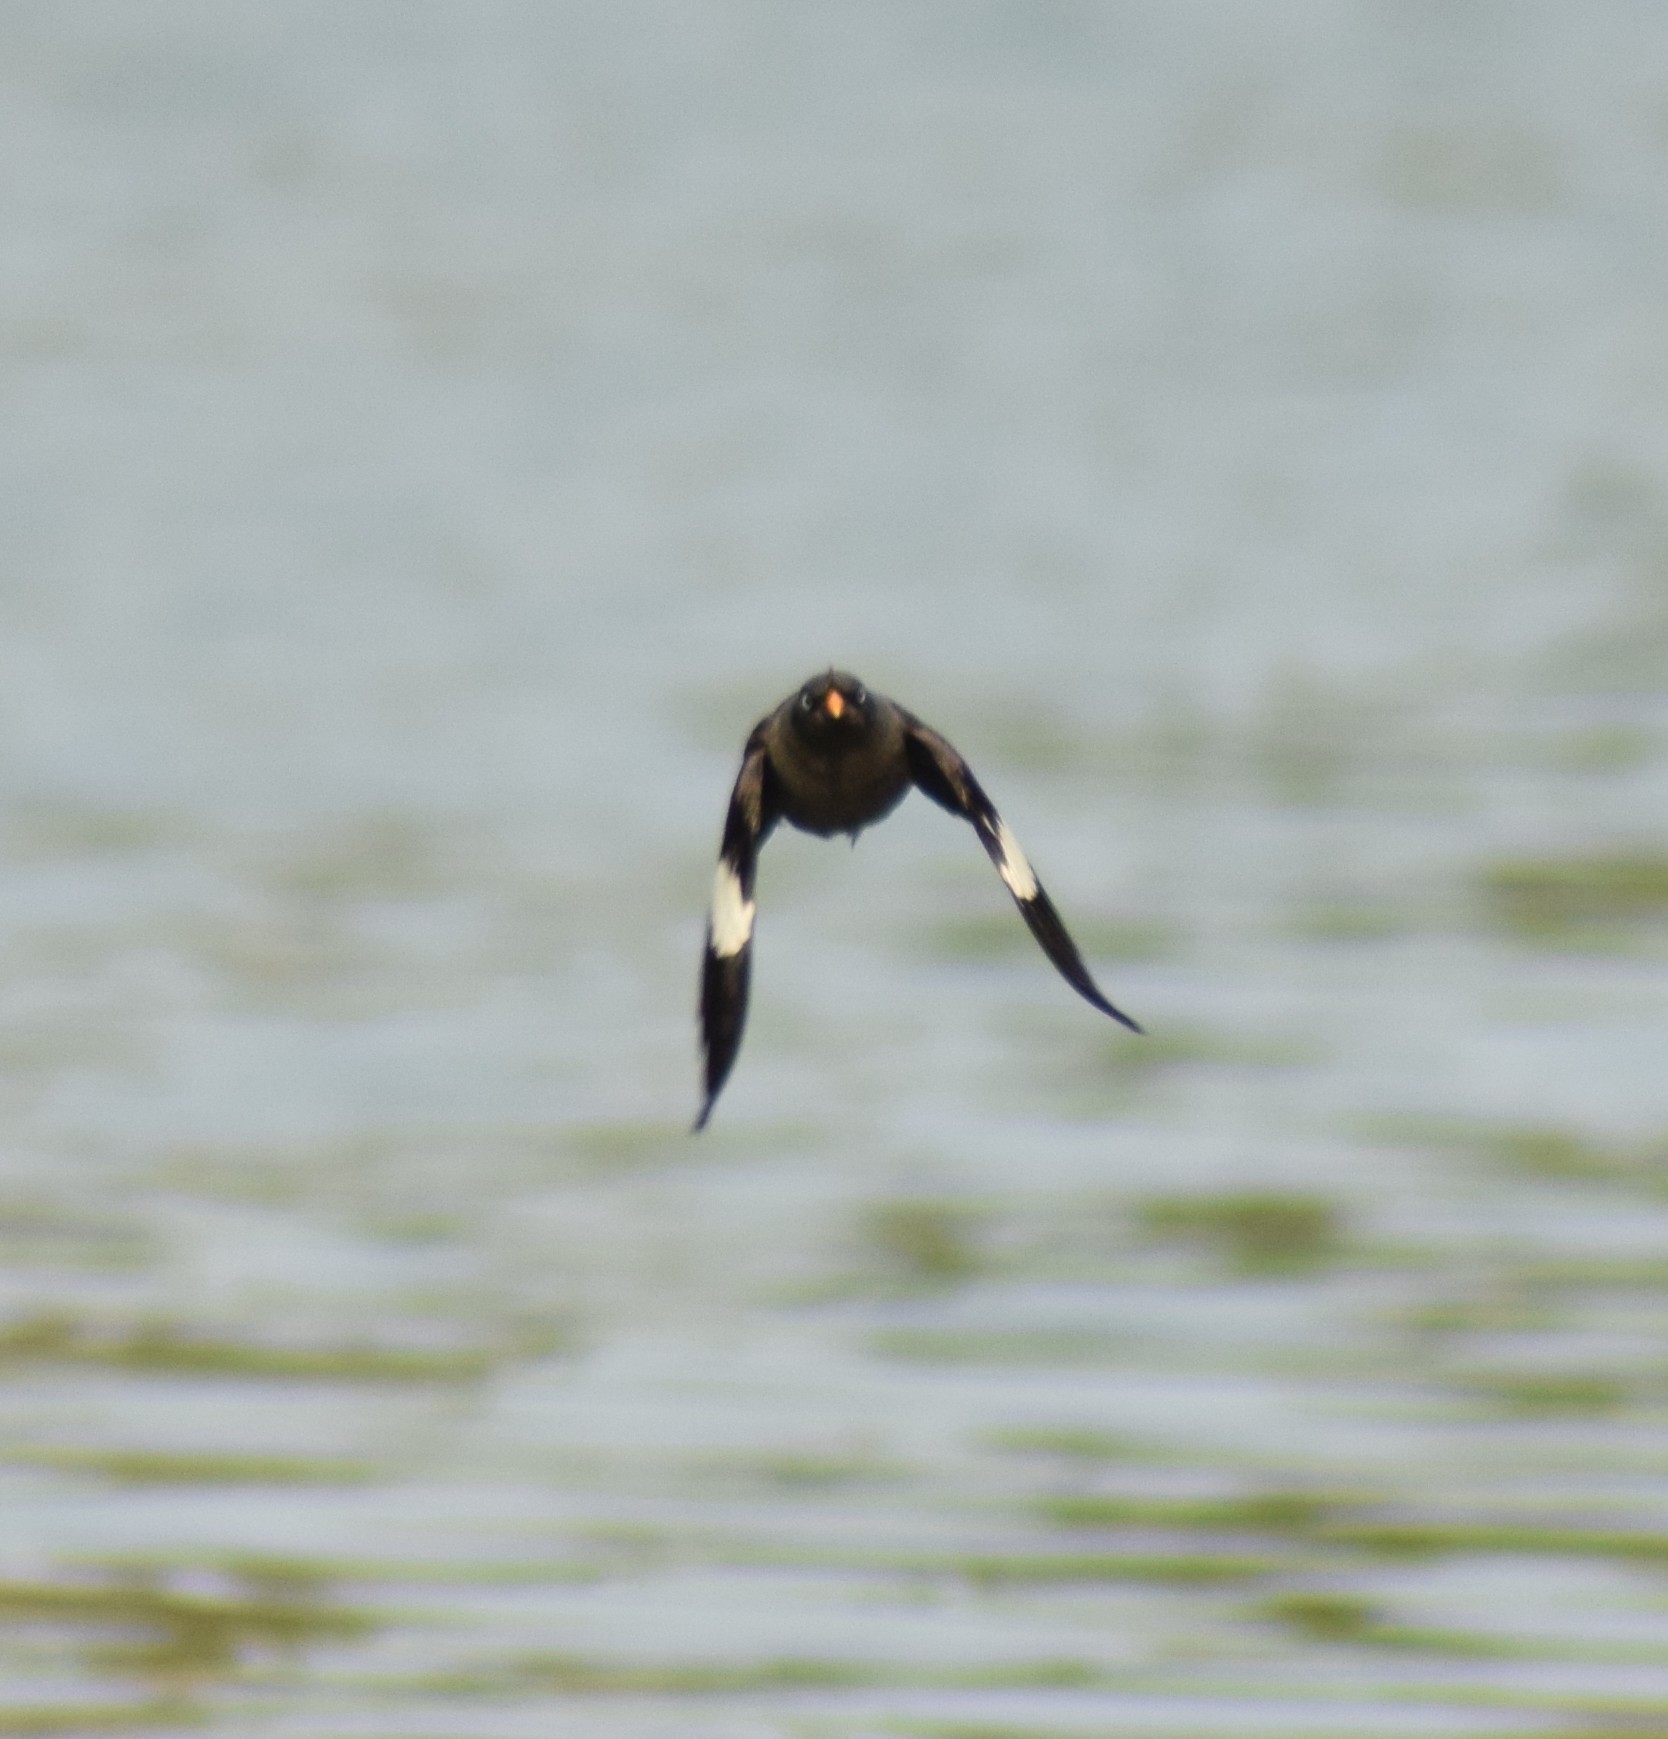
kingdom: Animalia
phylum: Chordata
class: Aves
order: Passeriformes
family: Sturnidae
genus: Acridotheres
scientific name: Acridotheres fuscus
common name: Jungle myna
